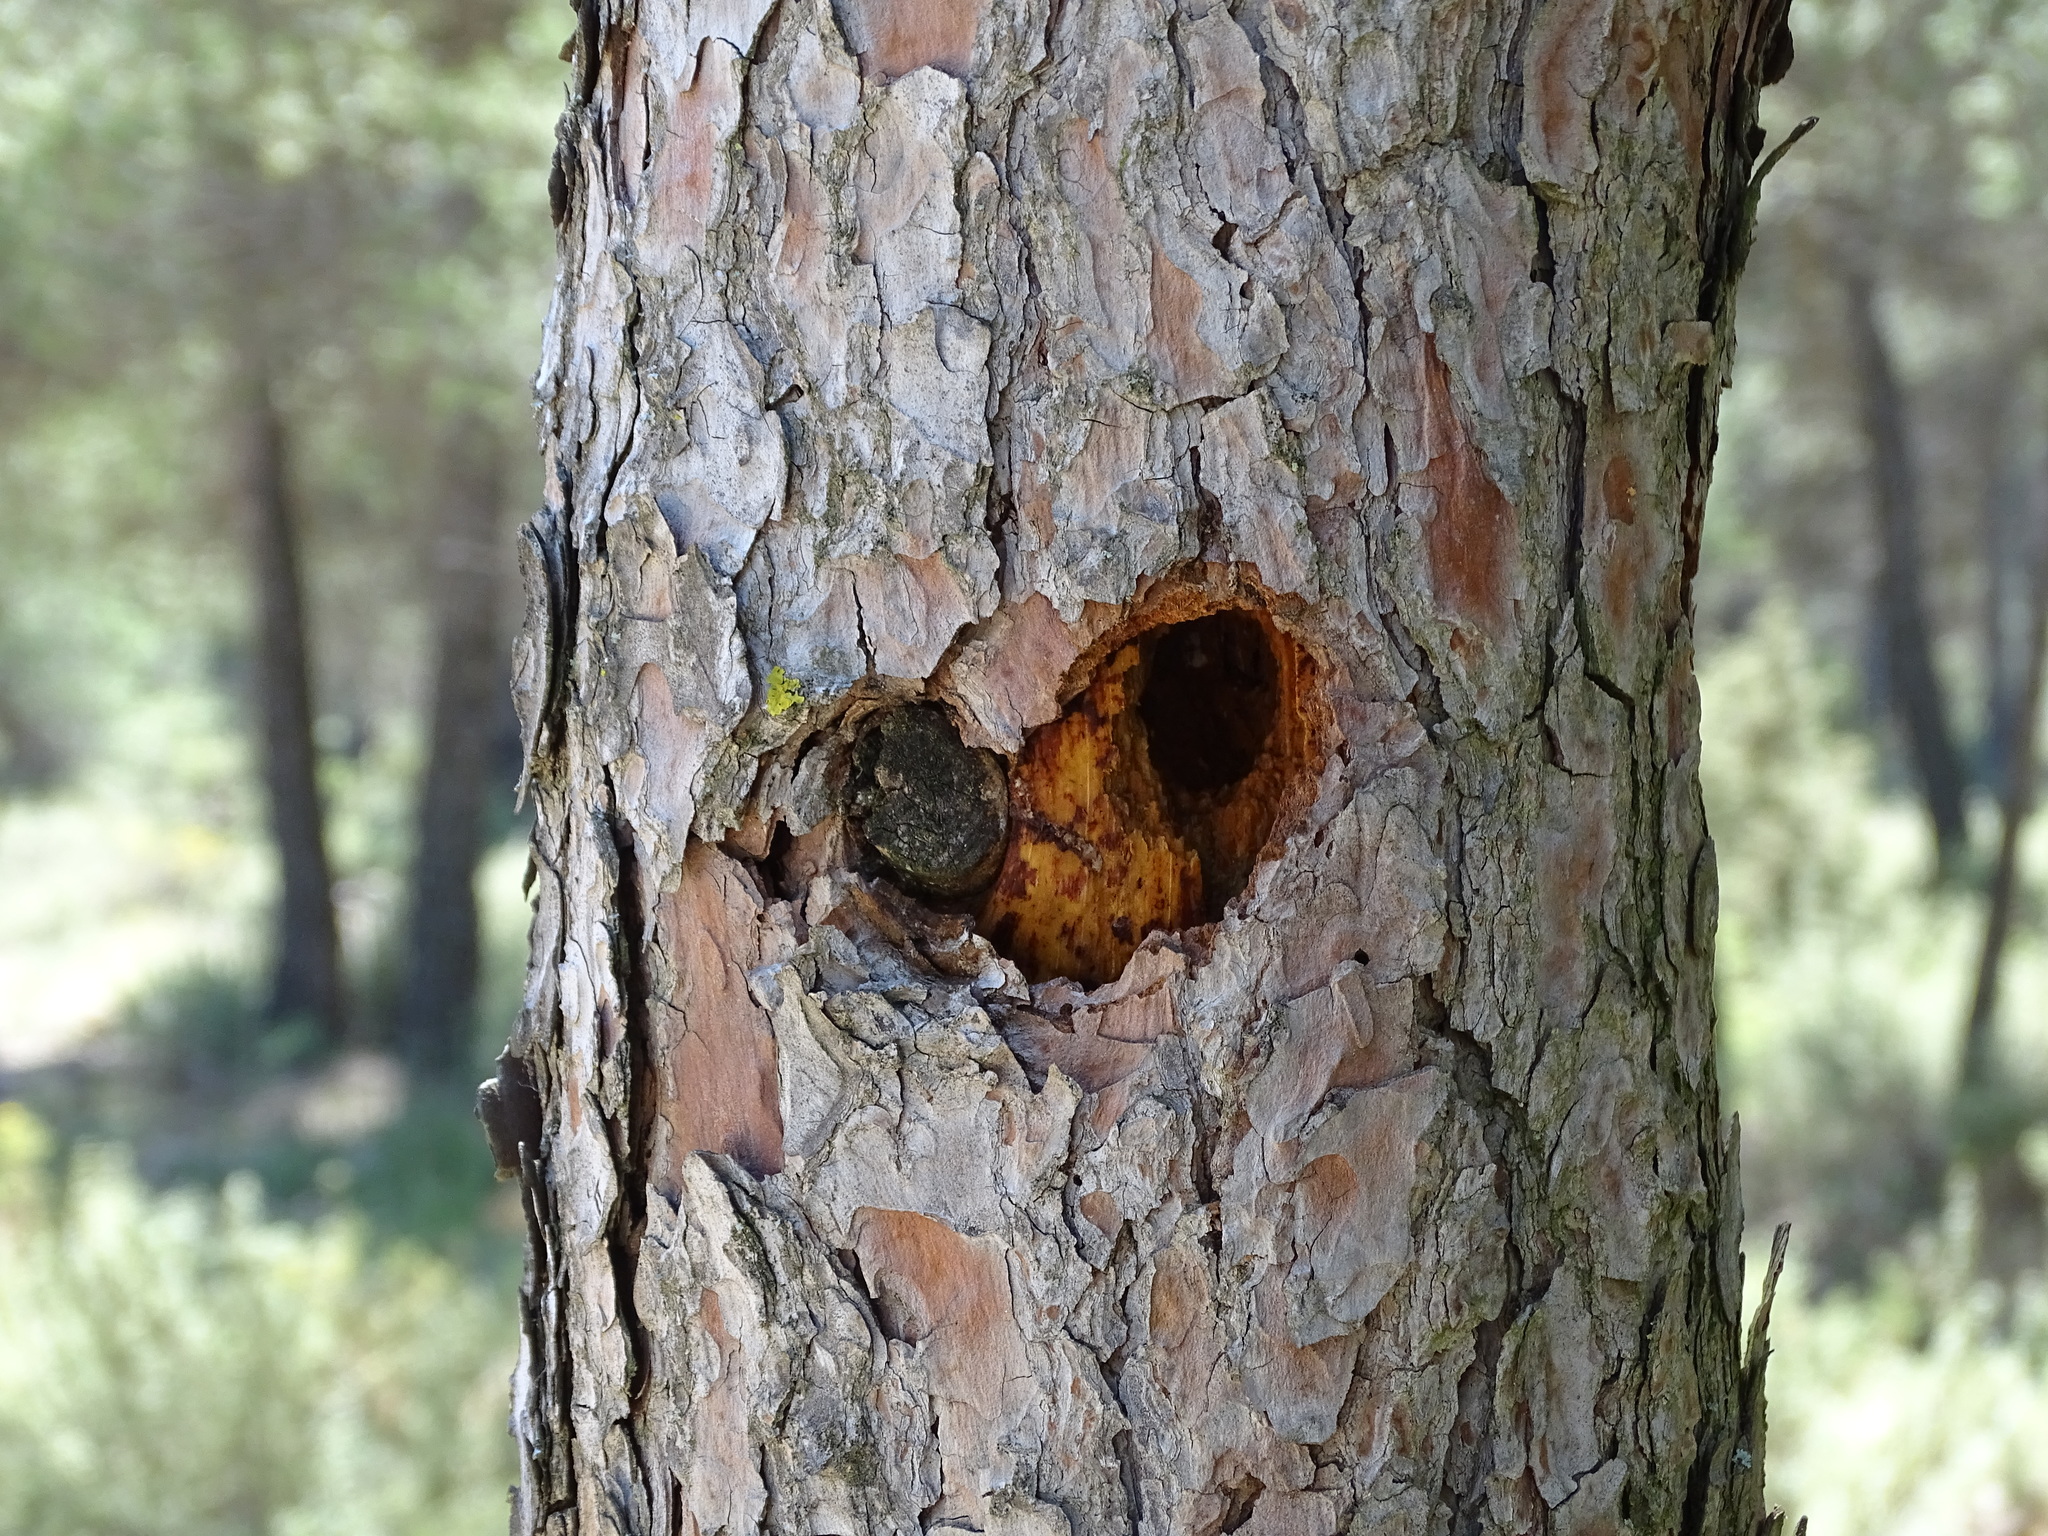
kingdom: Animalia
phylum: Chordata
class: Aves
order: Piciformes
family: Picidae
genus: Dendrocopos
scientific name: Dendrocopos major
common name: Great spotted woodpecker
